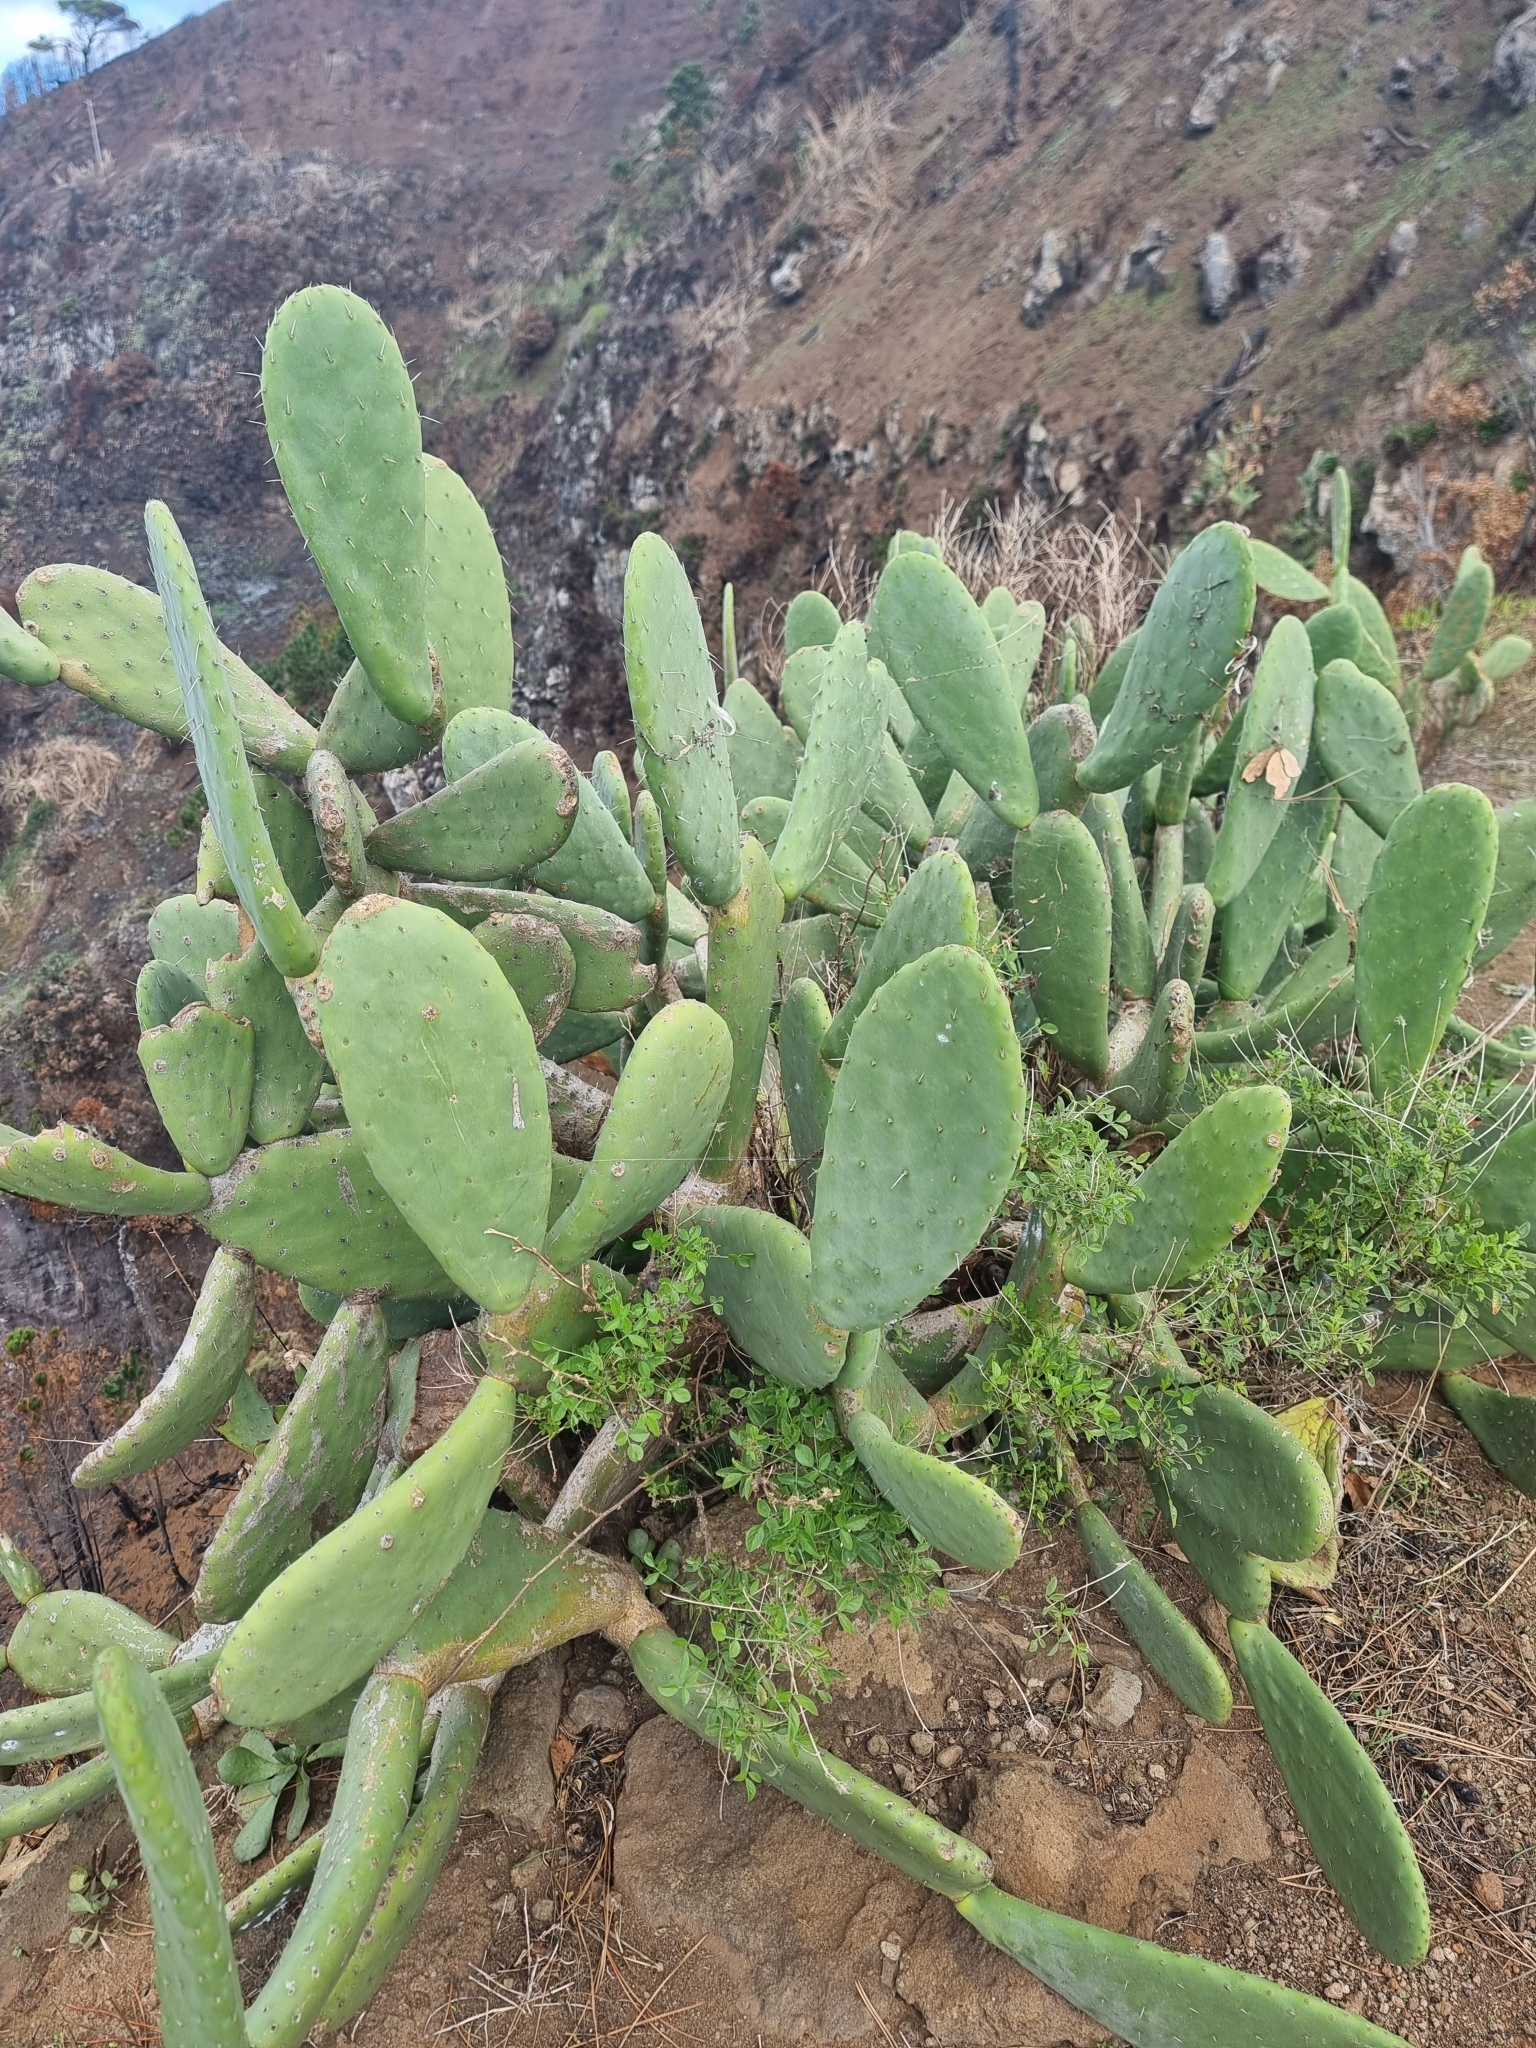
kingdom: Plantae
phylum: Tracheophyta
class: Magnoliopsida
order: Caryophyllales
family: Cactaceae
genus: Opuntia
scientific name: Opuntia ficus-indica
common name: Barbary fig
